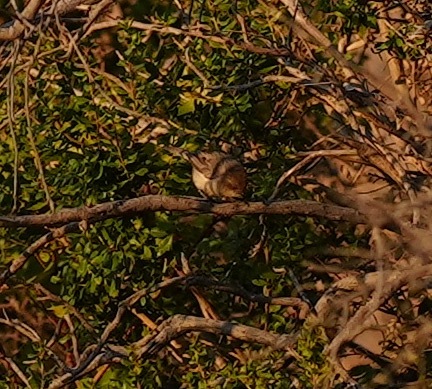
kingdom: Animalia
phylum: Chordata
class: Aves
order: Passeriformes
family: Aegithalidae
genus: Psaltriparus
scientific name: Psaltriparus minimus
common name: American bushtit
